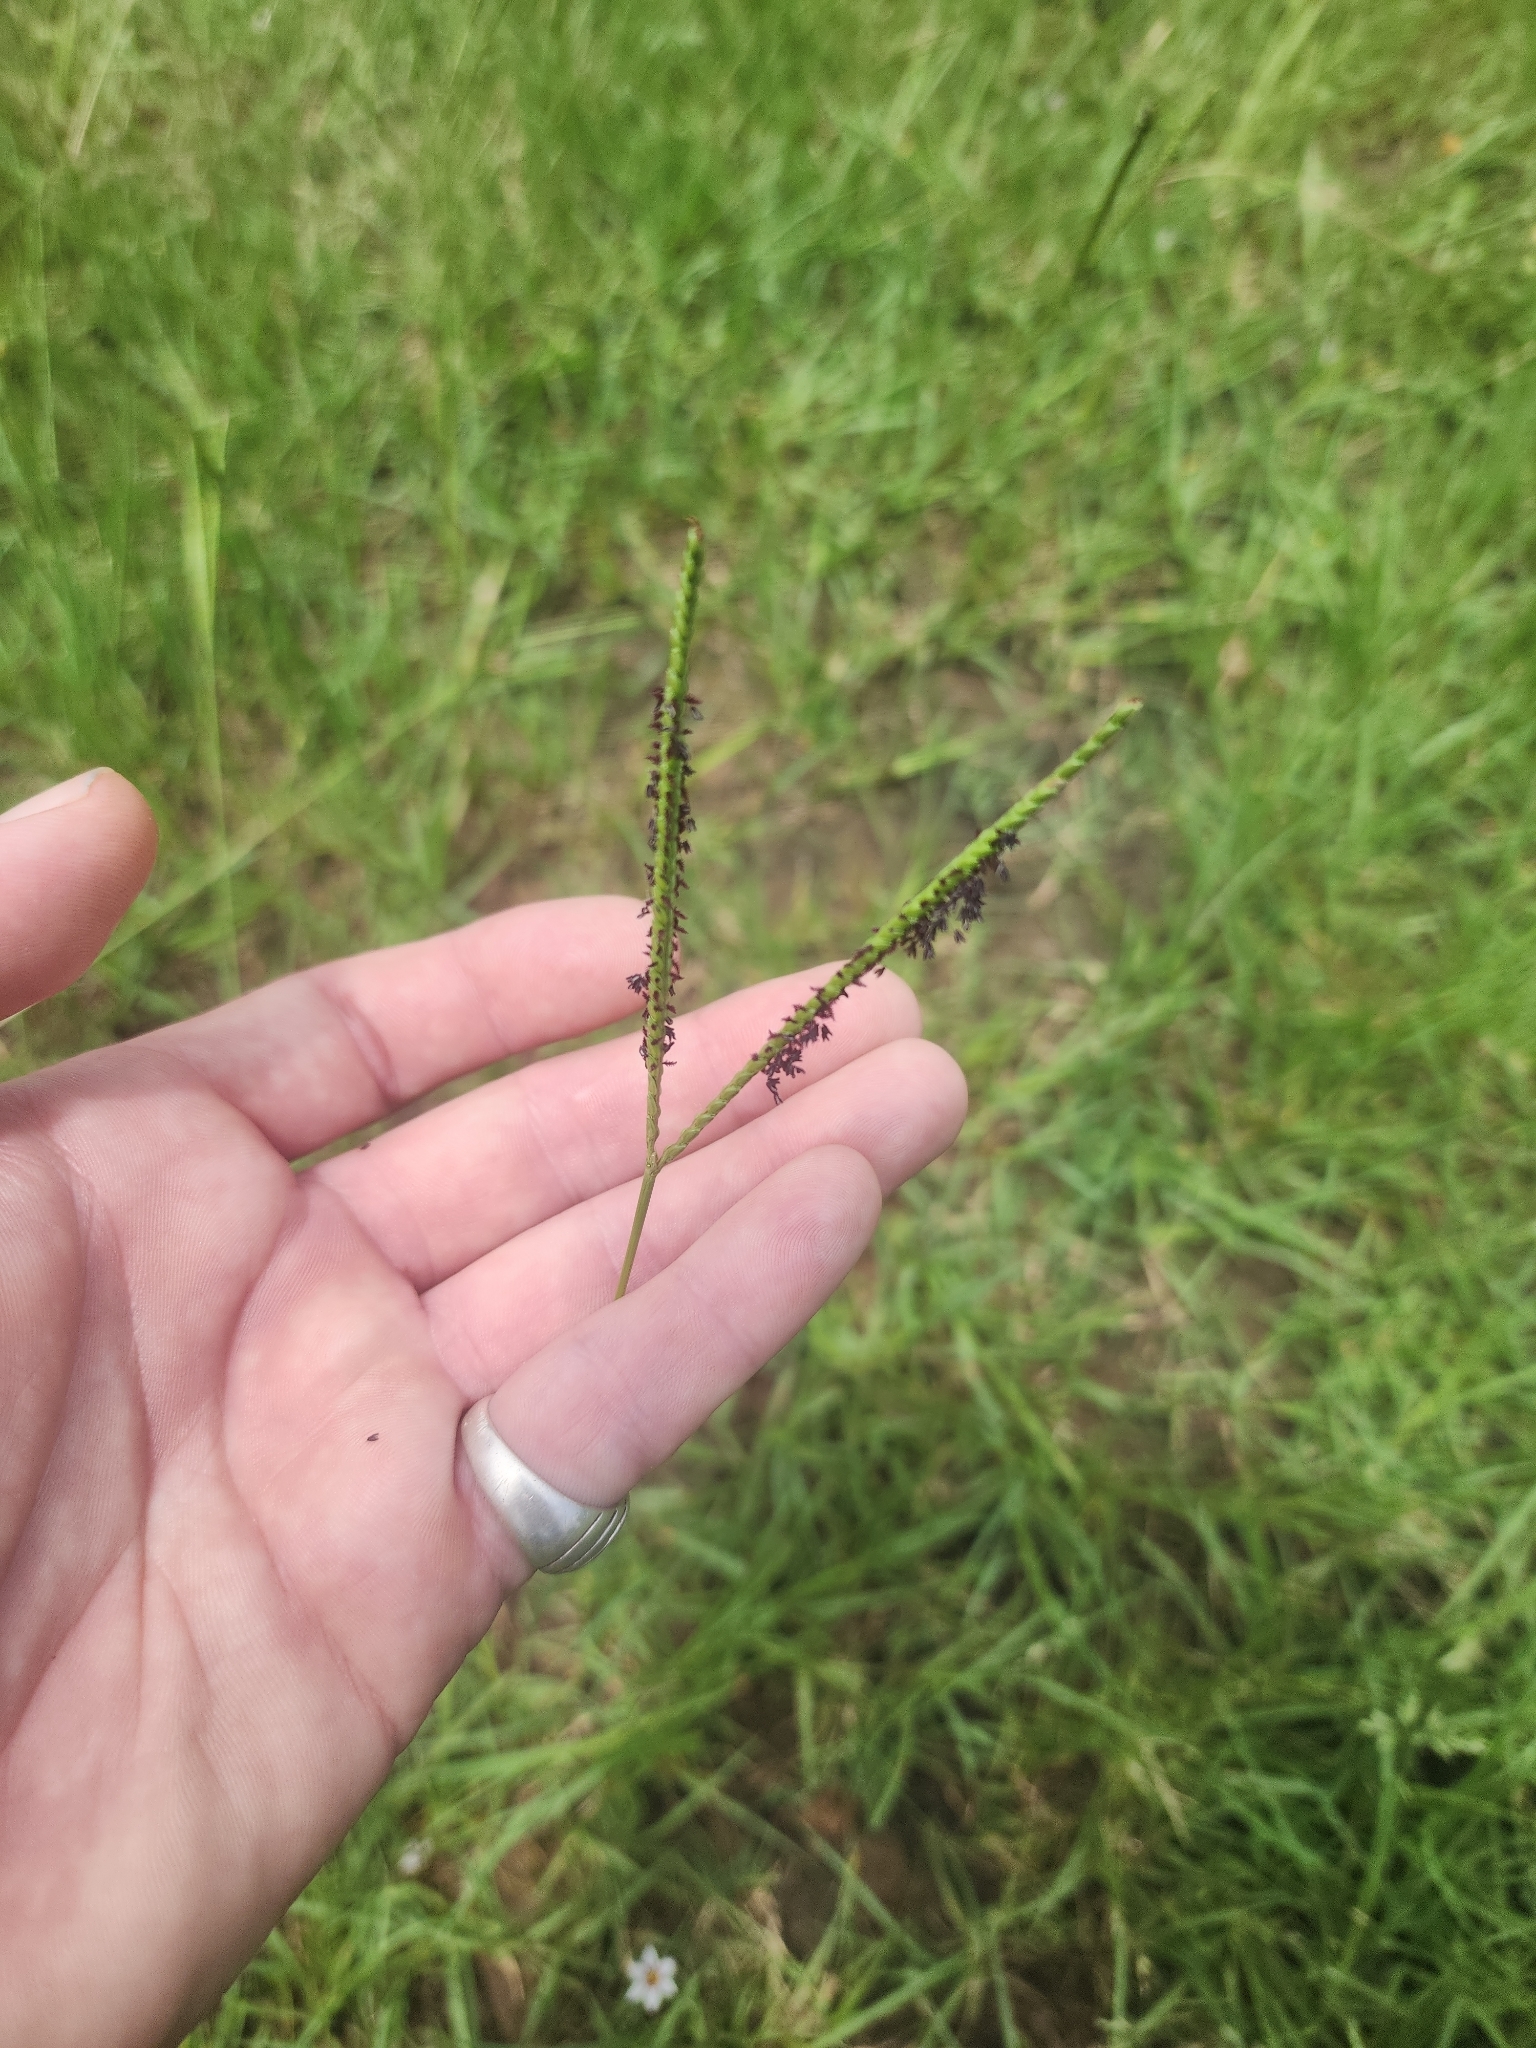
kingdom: Plantae
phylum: Tracheophyta
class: Liliopsida
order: Poales
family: Poaceae
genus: Paspalum
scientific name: Paspalum notatum
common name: Bahiagrass
